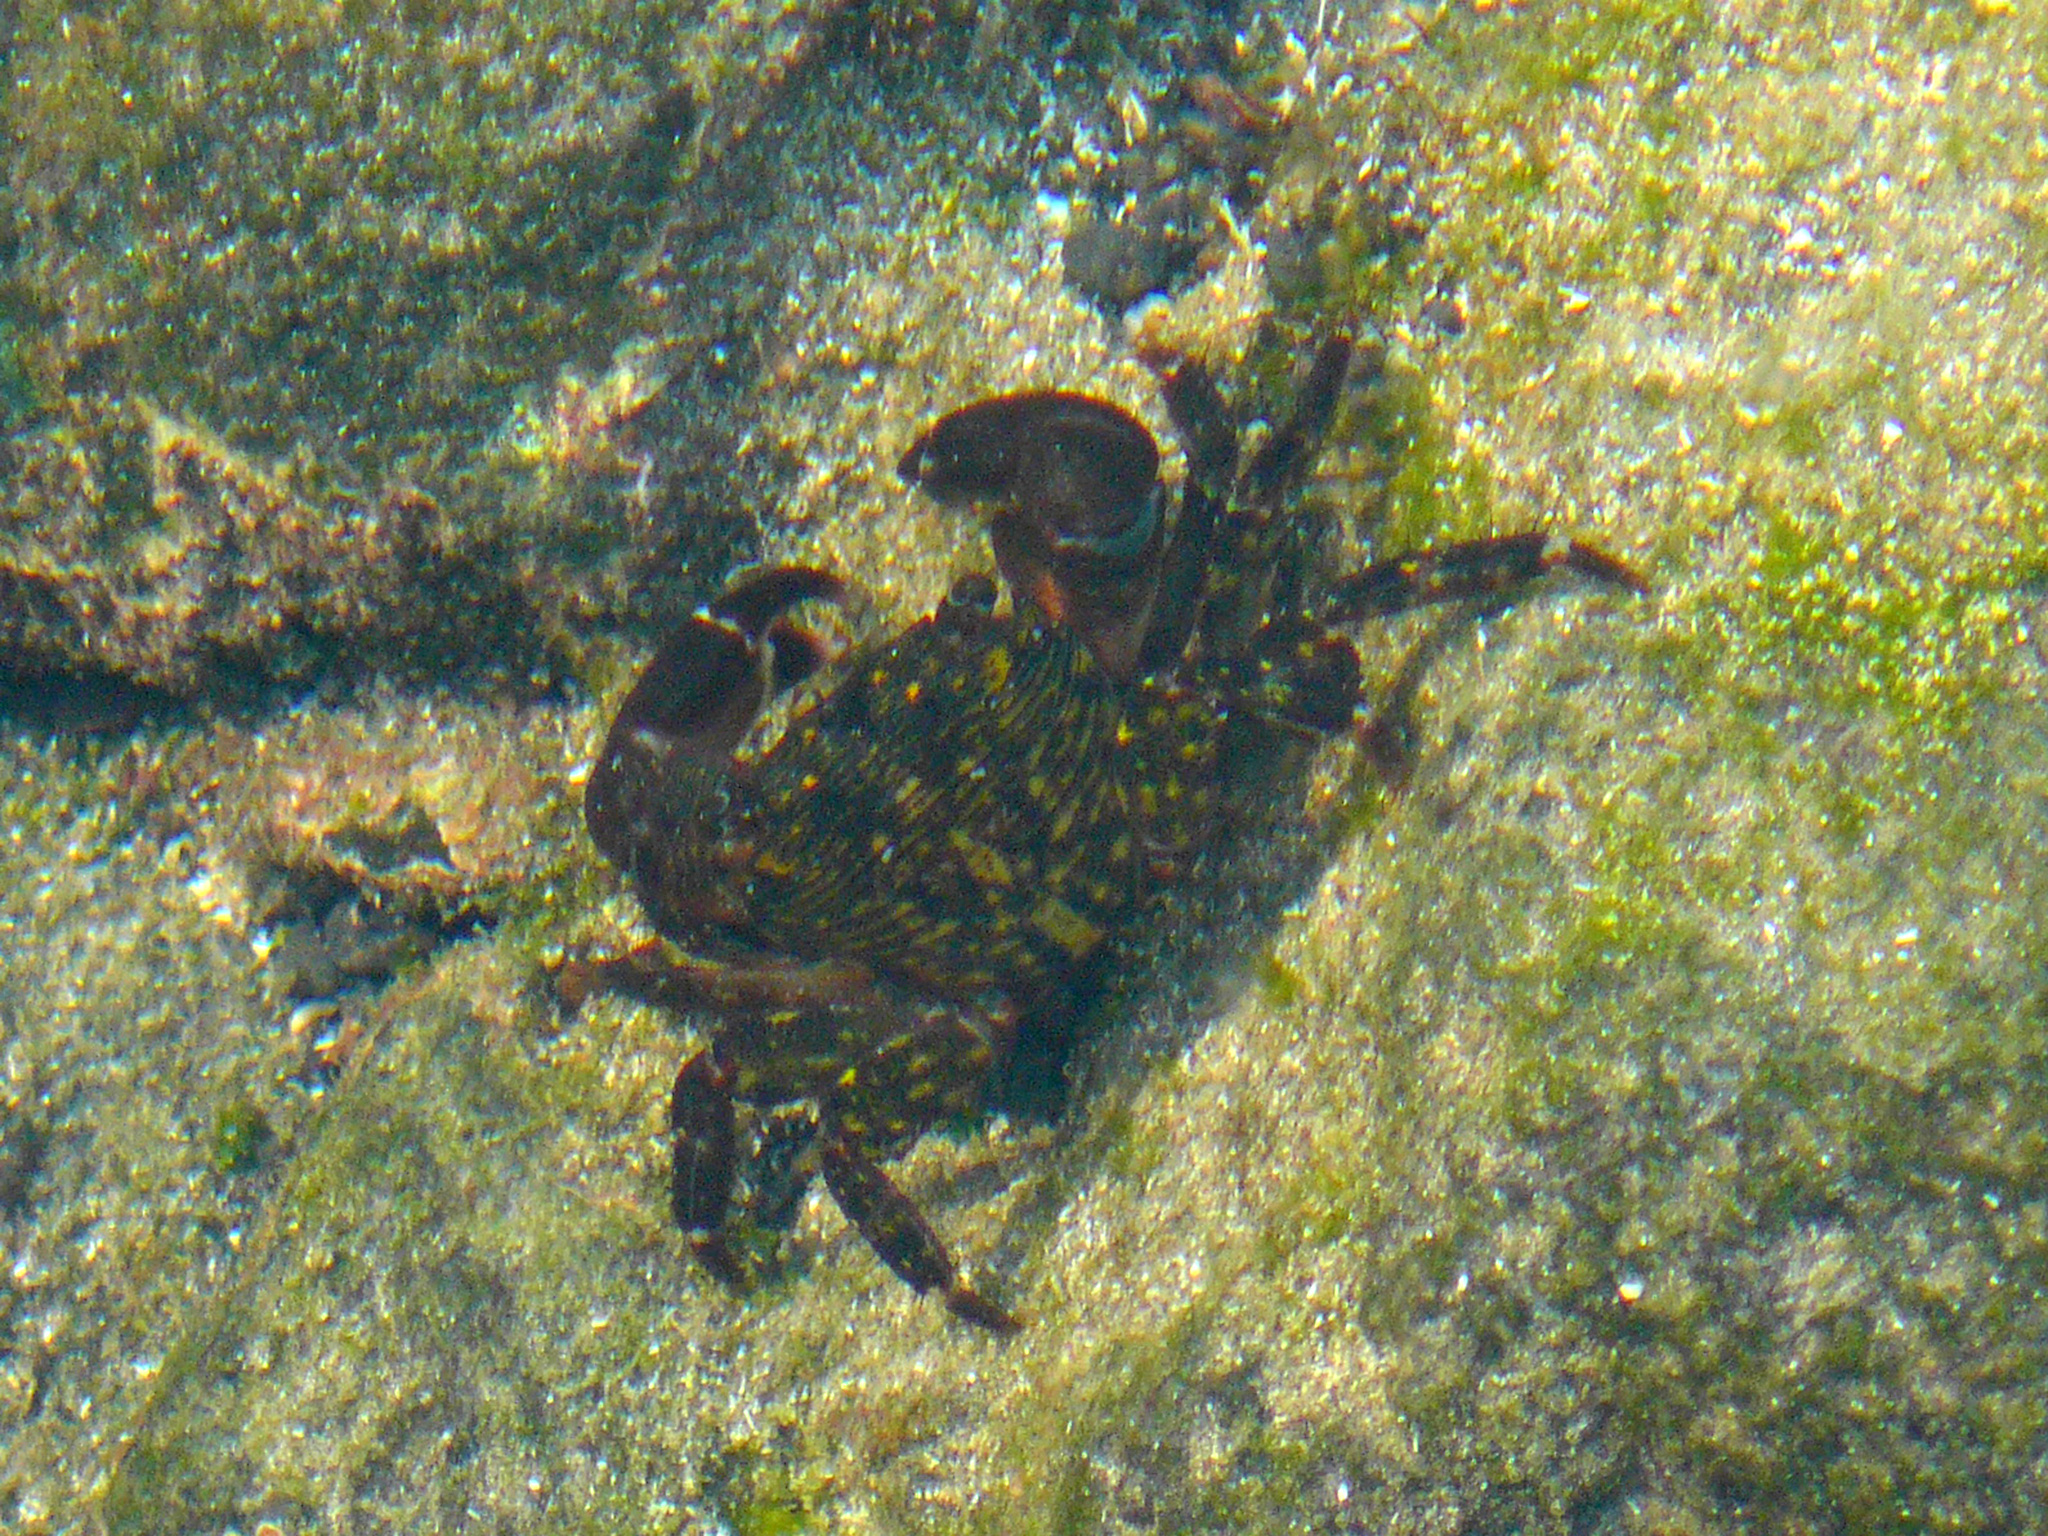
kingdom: Animalia
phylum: Arthropoda
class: Malacostraca
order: Decapoda
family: Grapsidae
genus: Pachygrapsus
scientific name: Pachygrapsus transversus
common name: Mottled shore crab
